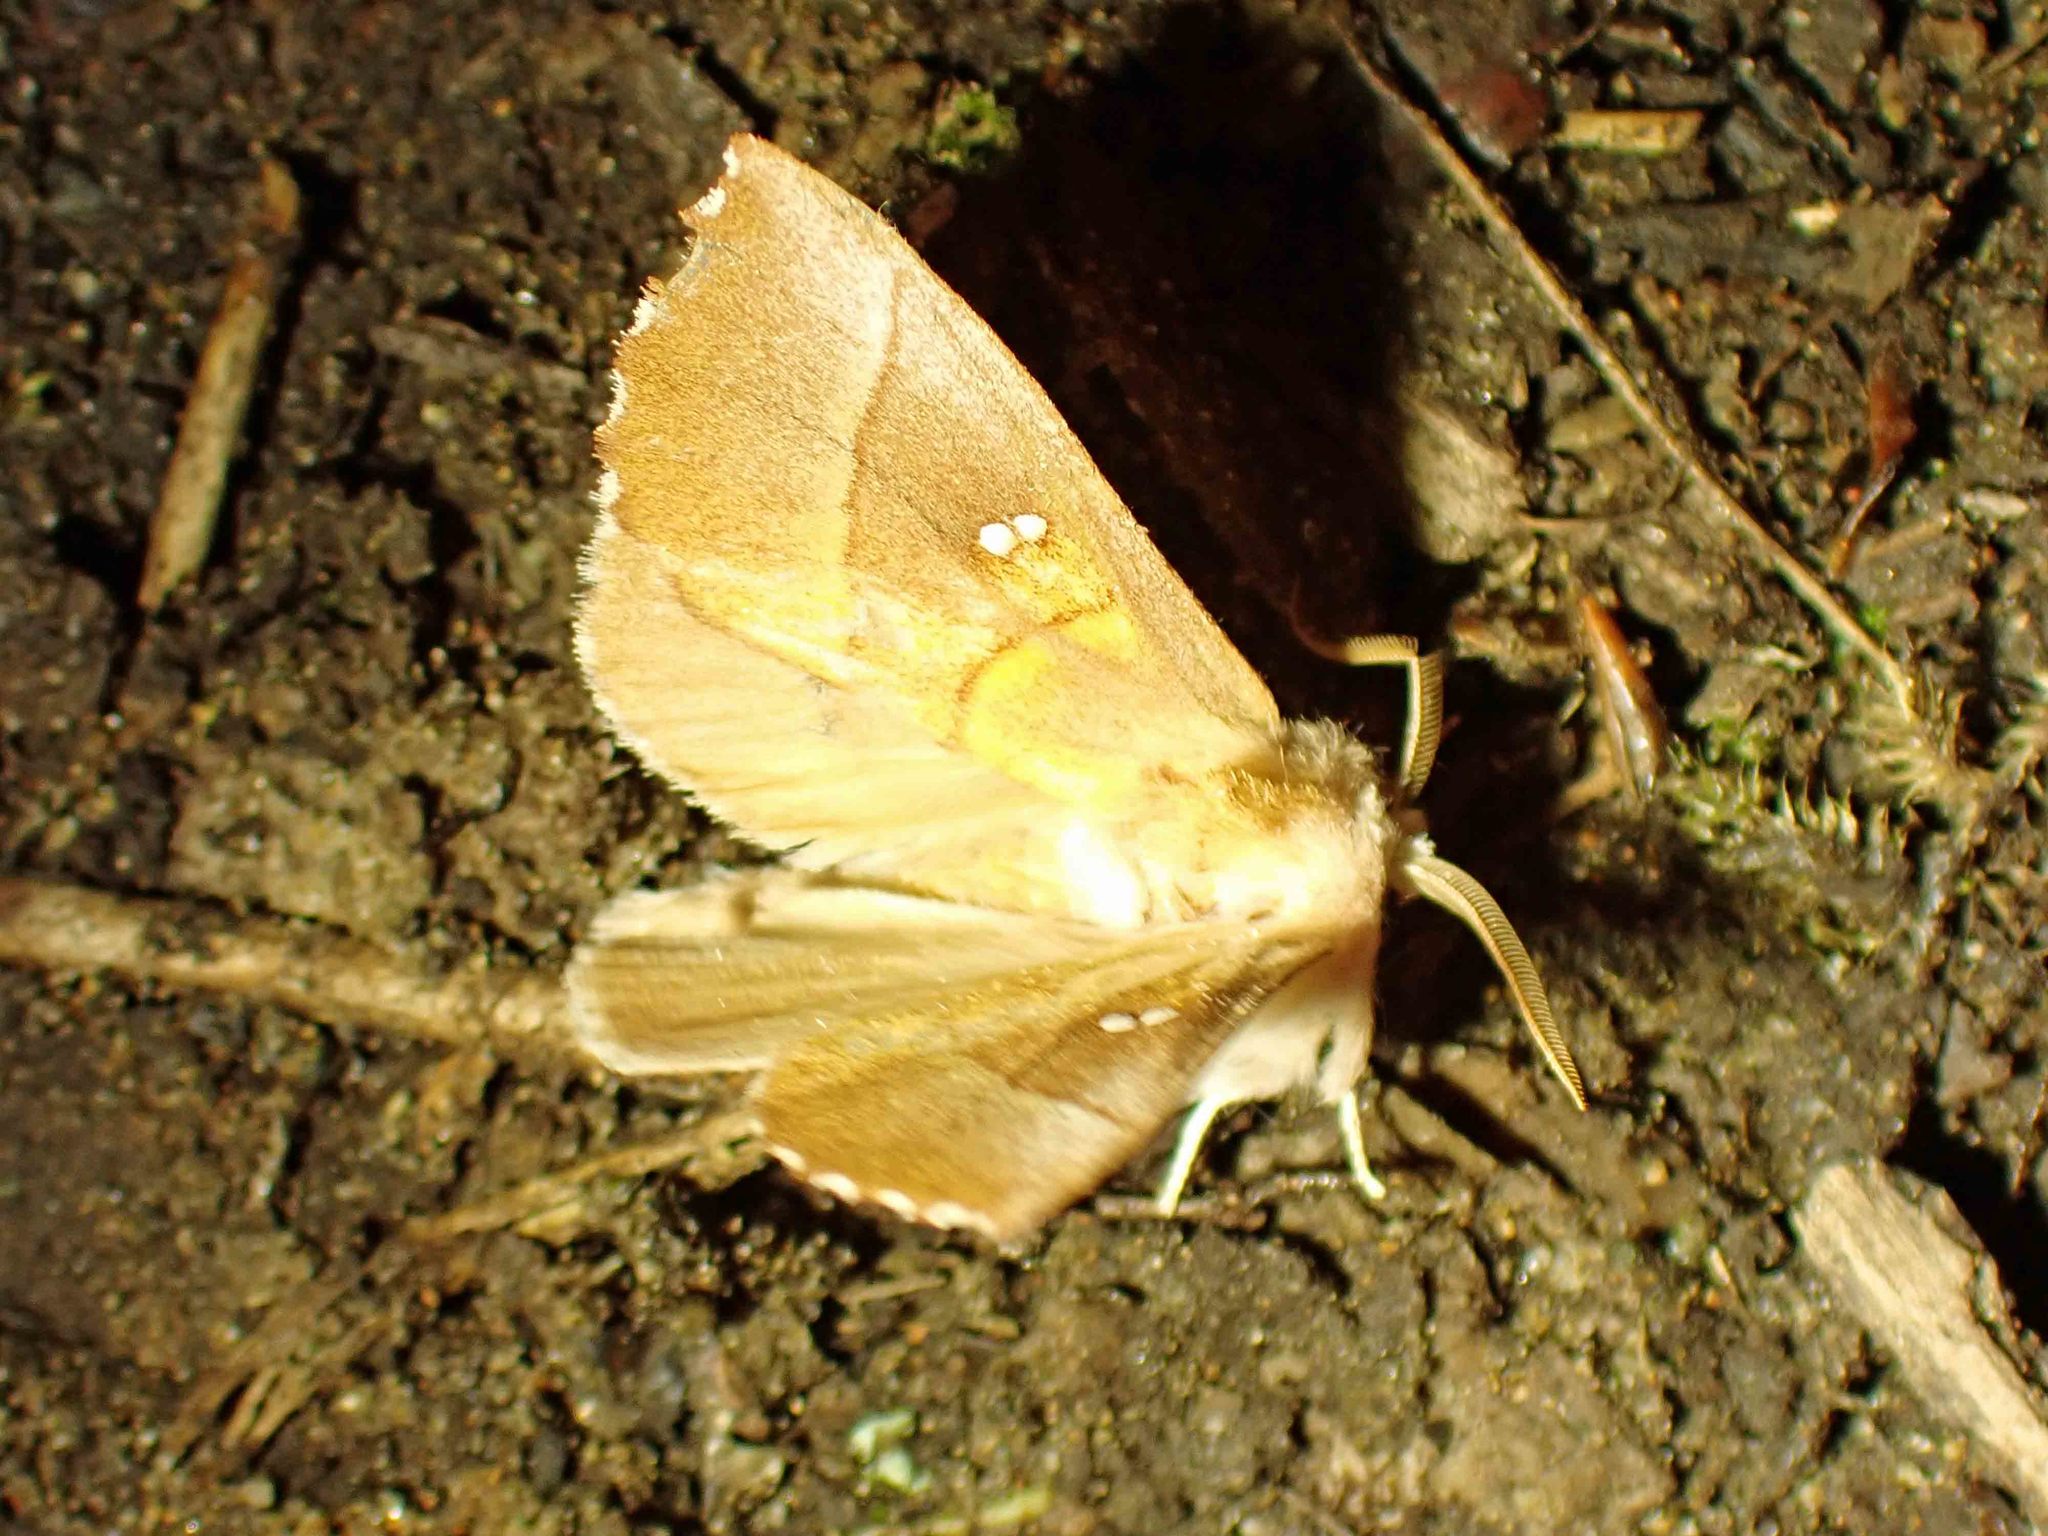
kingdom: Animalia
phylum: Arthropoda
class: Insecta
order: Lepidoptera
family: Notodontidae
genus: Nadata
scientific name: Nadata gibbosa
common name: White-dotted prominent
